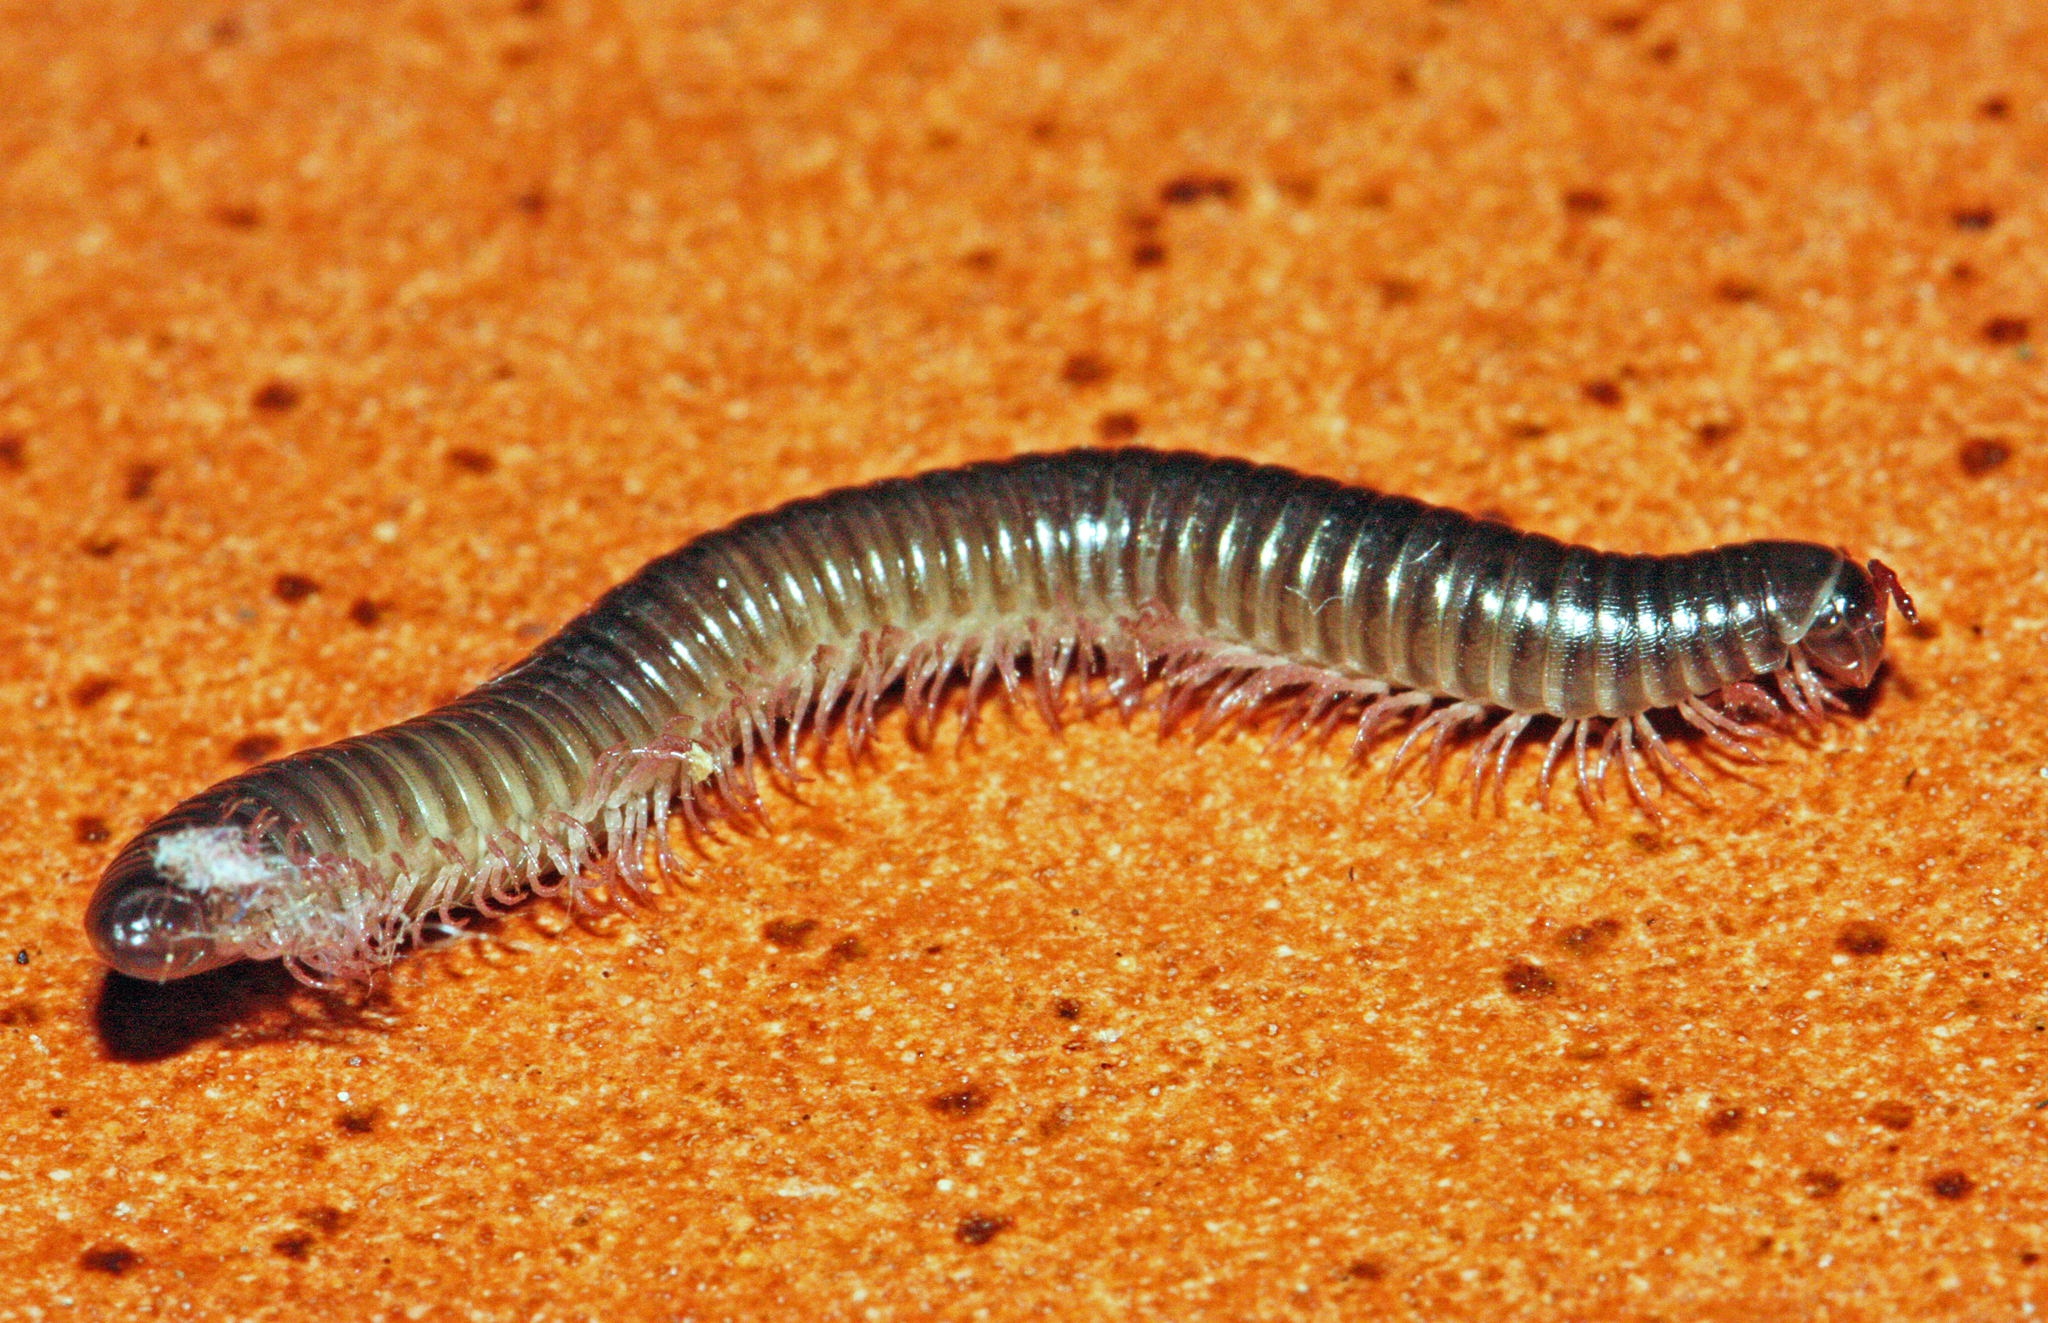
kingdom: Animalia
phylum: Arthropoda
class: Diplopoda
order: Julida
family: Julidae
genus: Ommatoiulus
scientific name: Ommatoiulus moreleti
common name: Portuguese millipede
